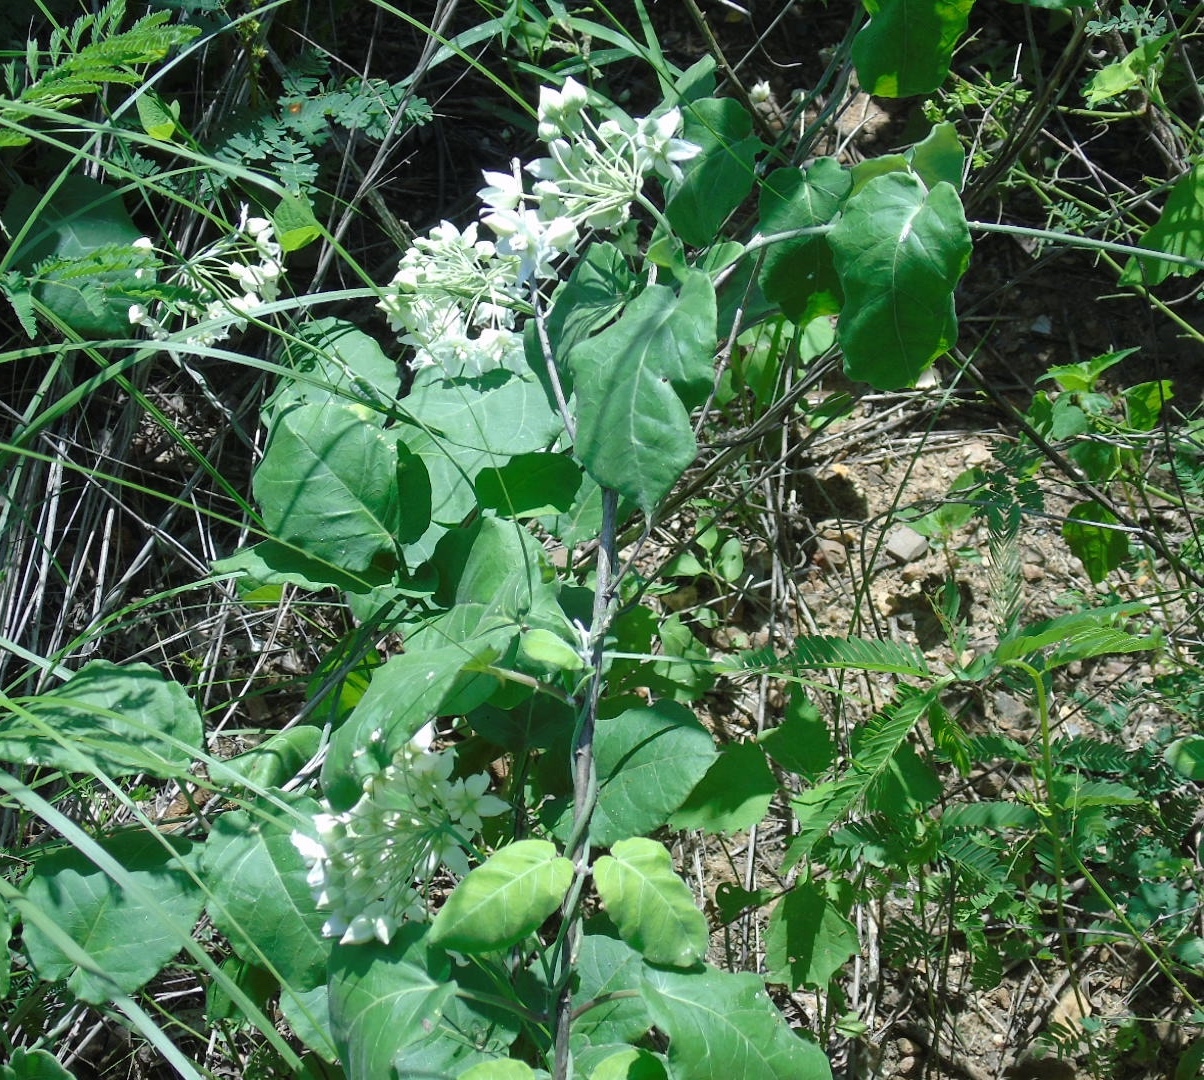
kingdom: Plantae
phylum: Tracheophyta
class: Magnoliopsida
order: Gentianales
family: Apocynaceae
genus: Funastrum
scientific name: Funastrum pannosum
